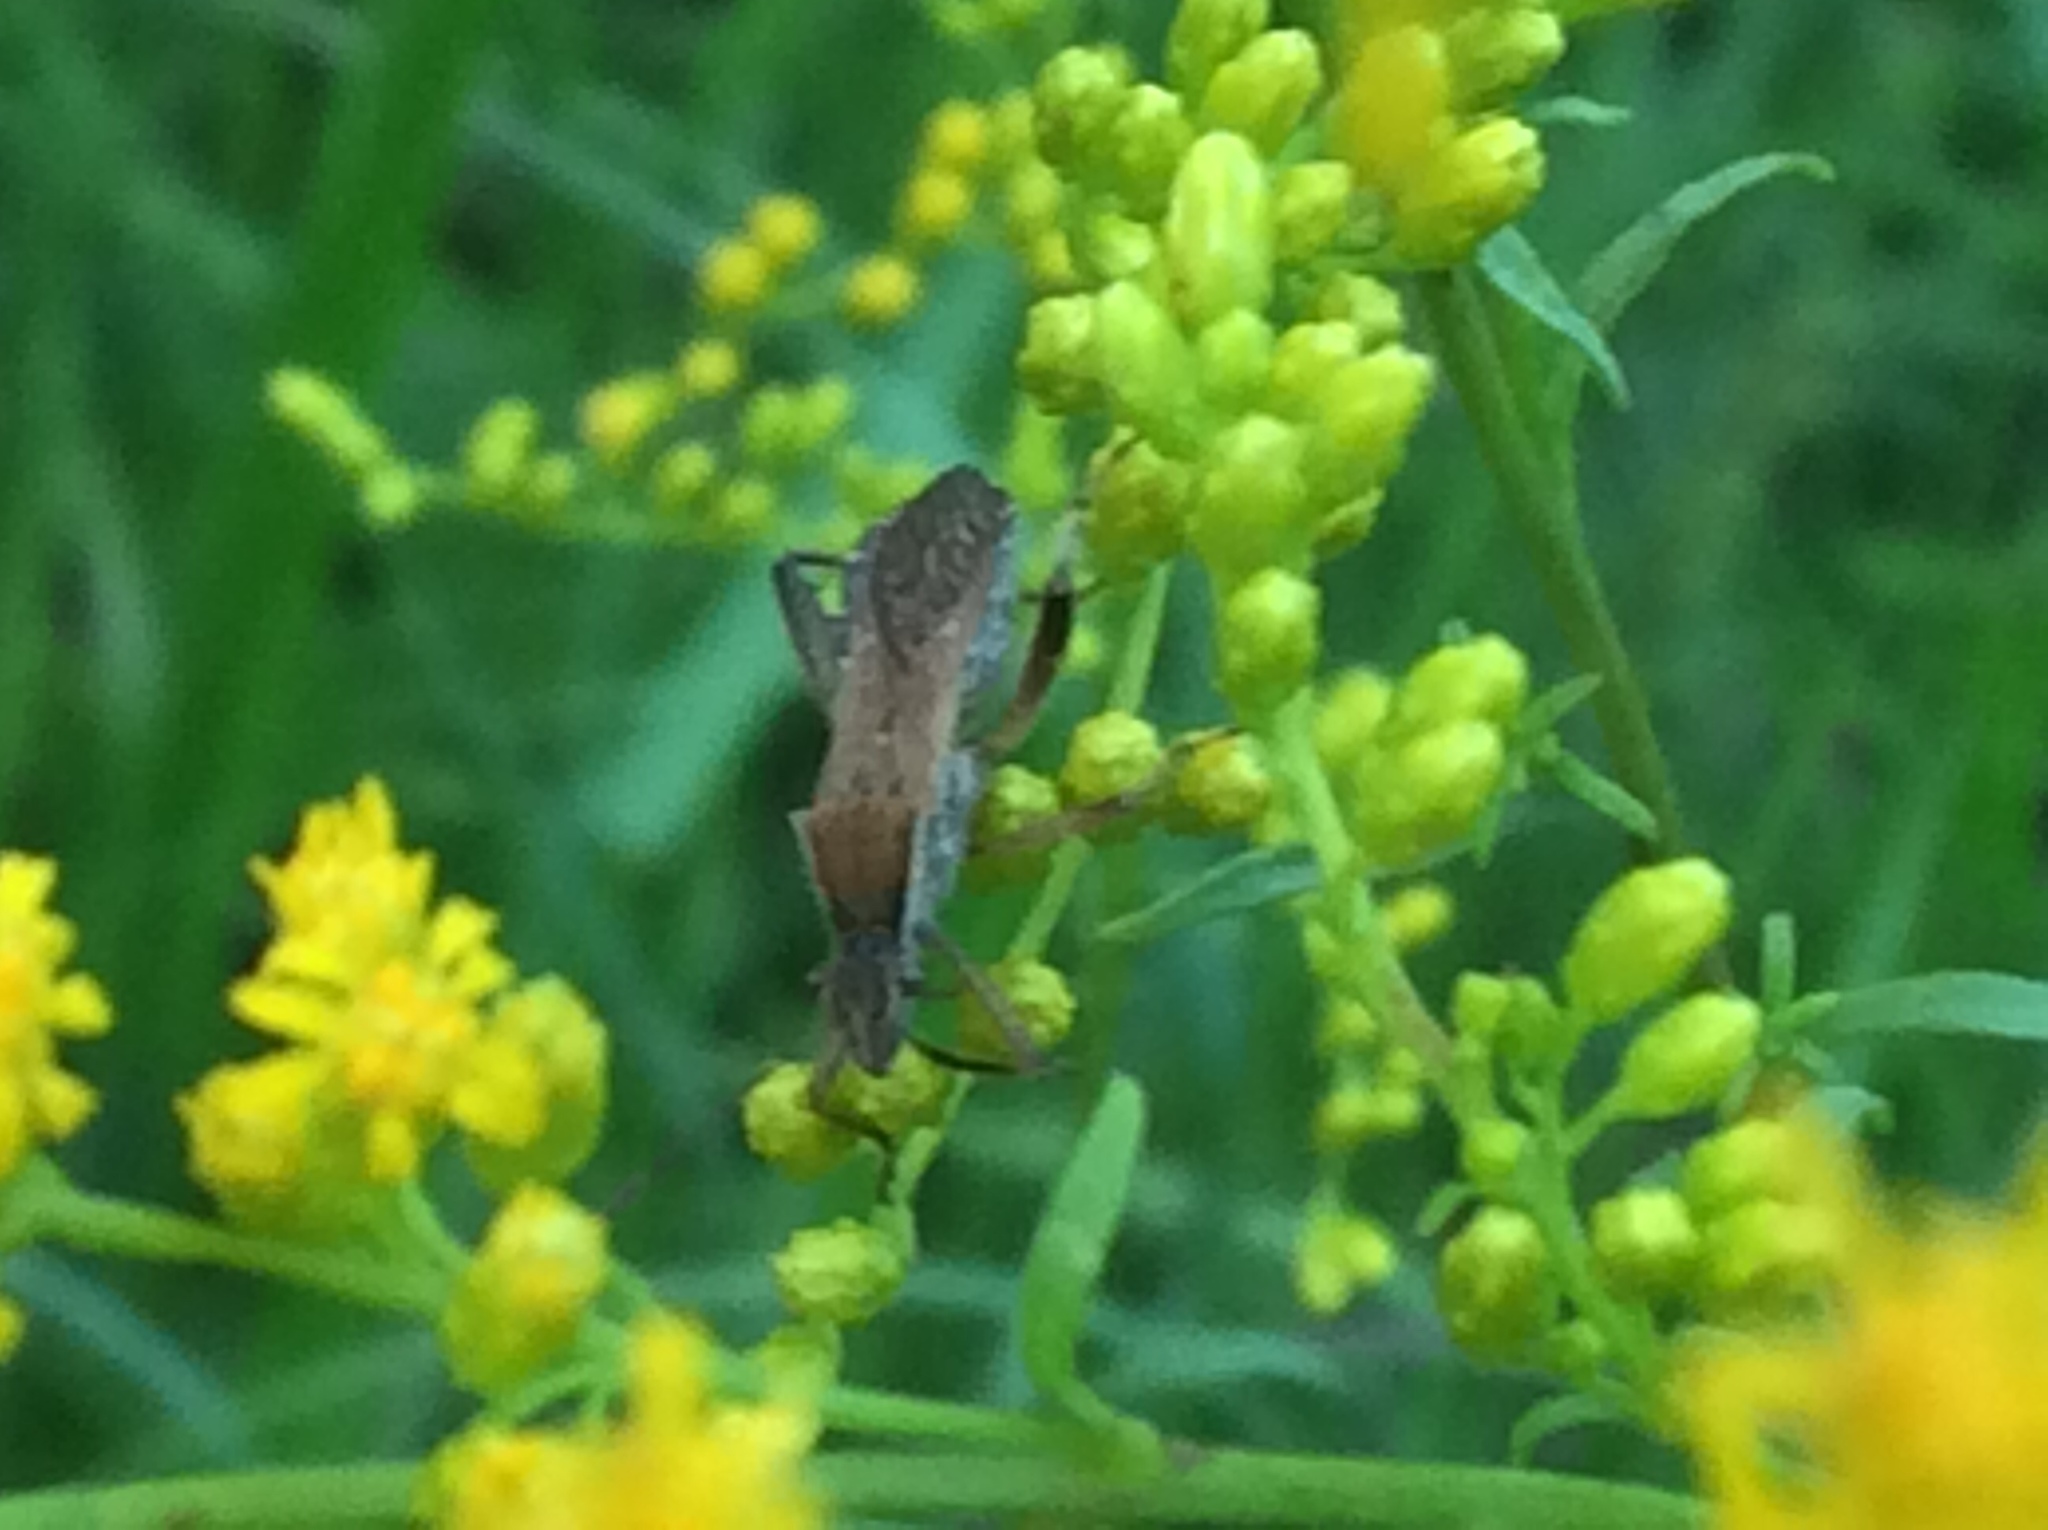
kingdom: Animalia
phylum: Arthropoda
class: Insecta
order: Hemiptera
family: Alydidae
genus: Alydus
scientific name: Alydus pilosulus
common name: Broad-headed bug
